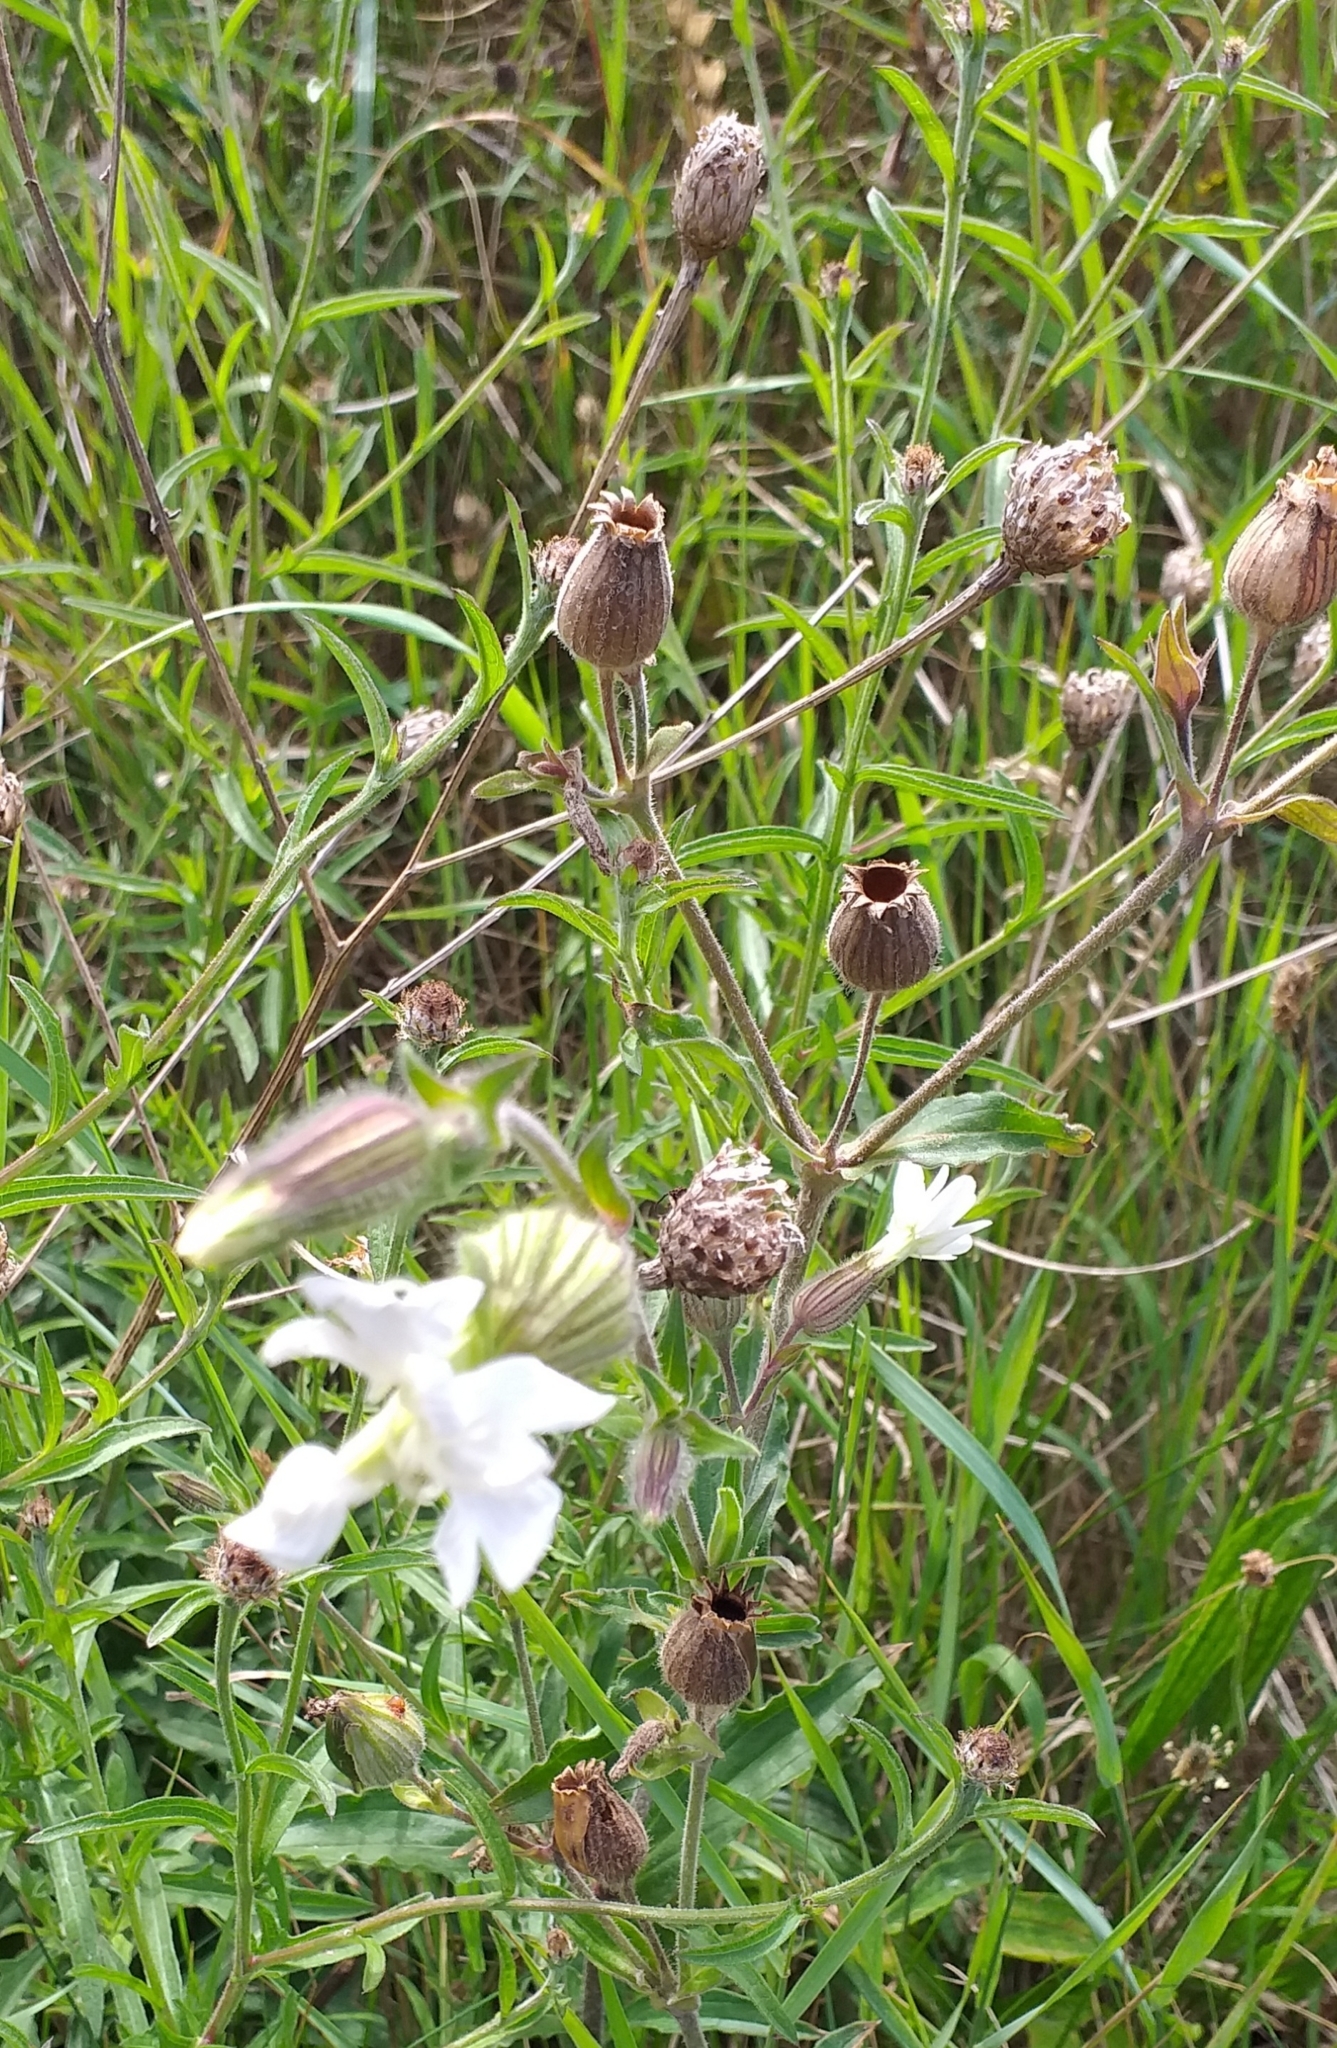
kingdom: Plantae
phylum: Tracheophyta
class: Magnoliopsida
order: Caryophyllales
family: Caryophyllaceae
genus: Silene
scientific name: Silene latifolia
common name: White campion
